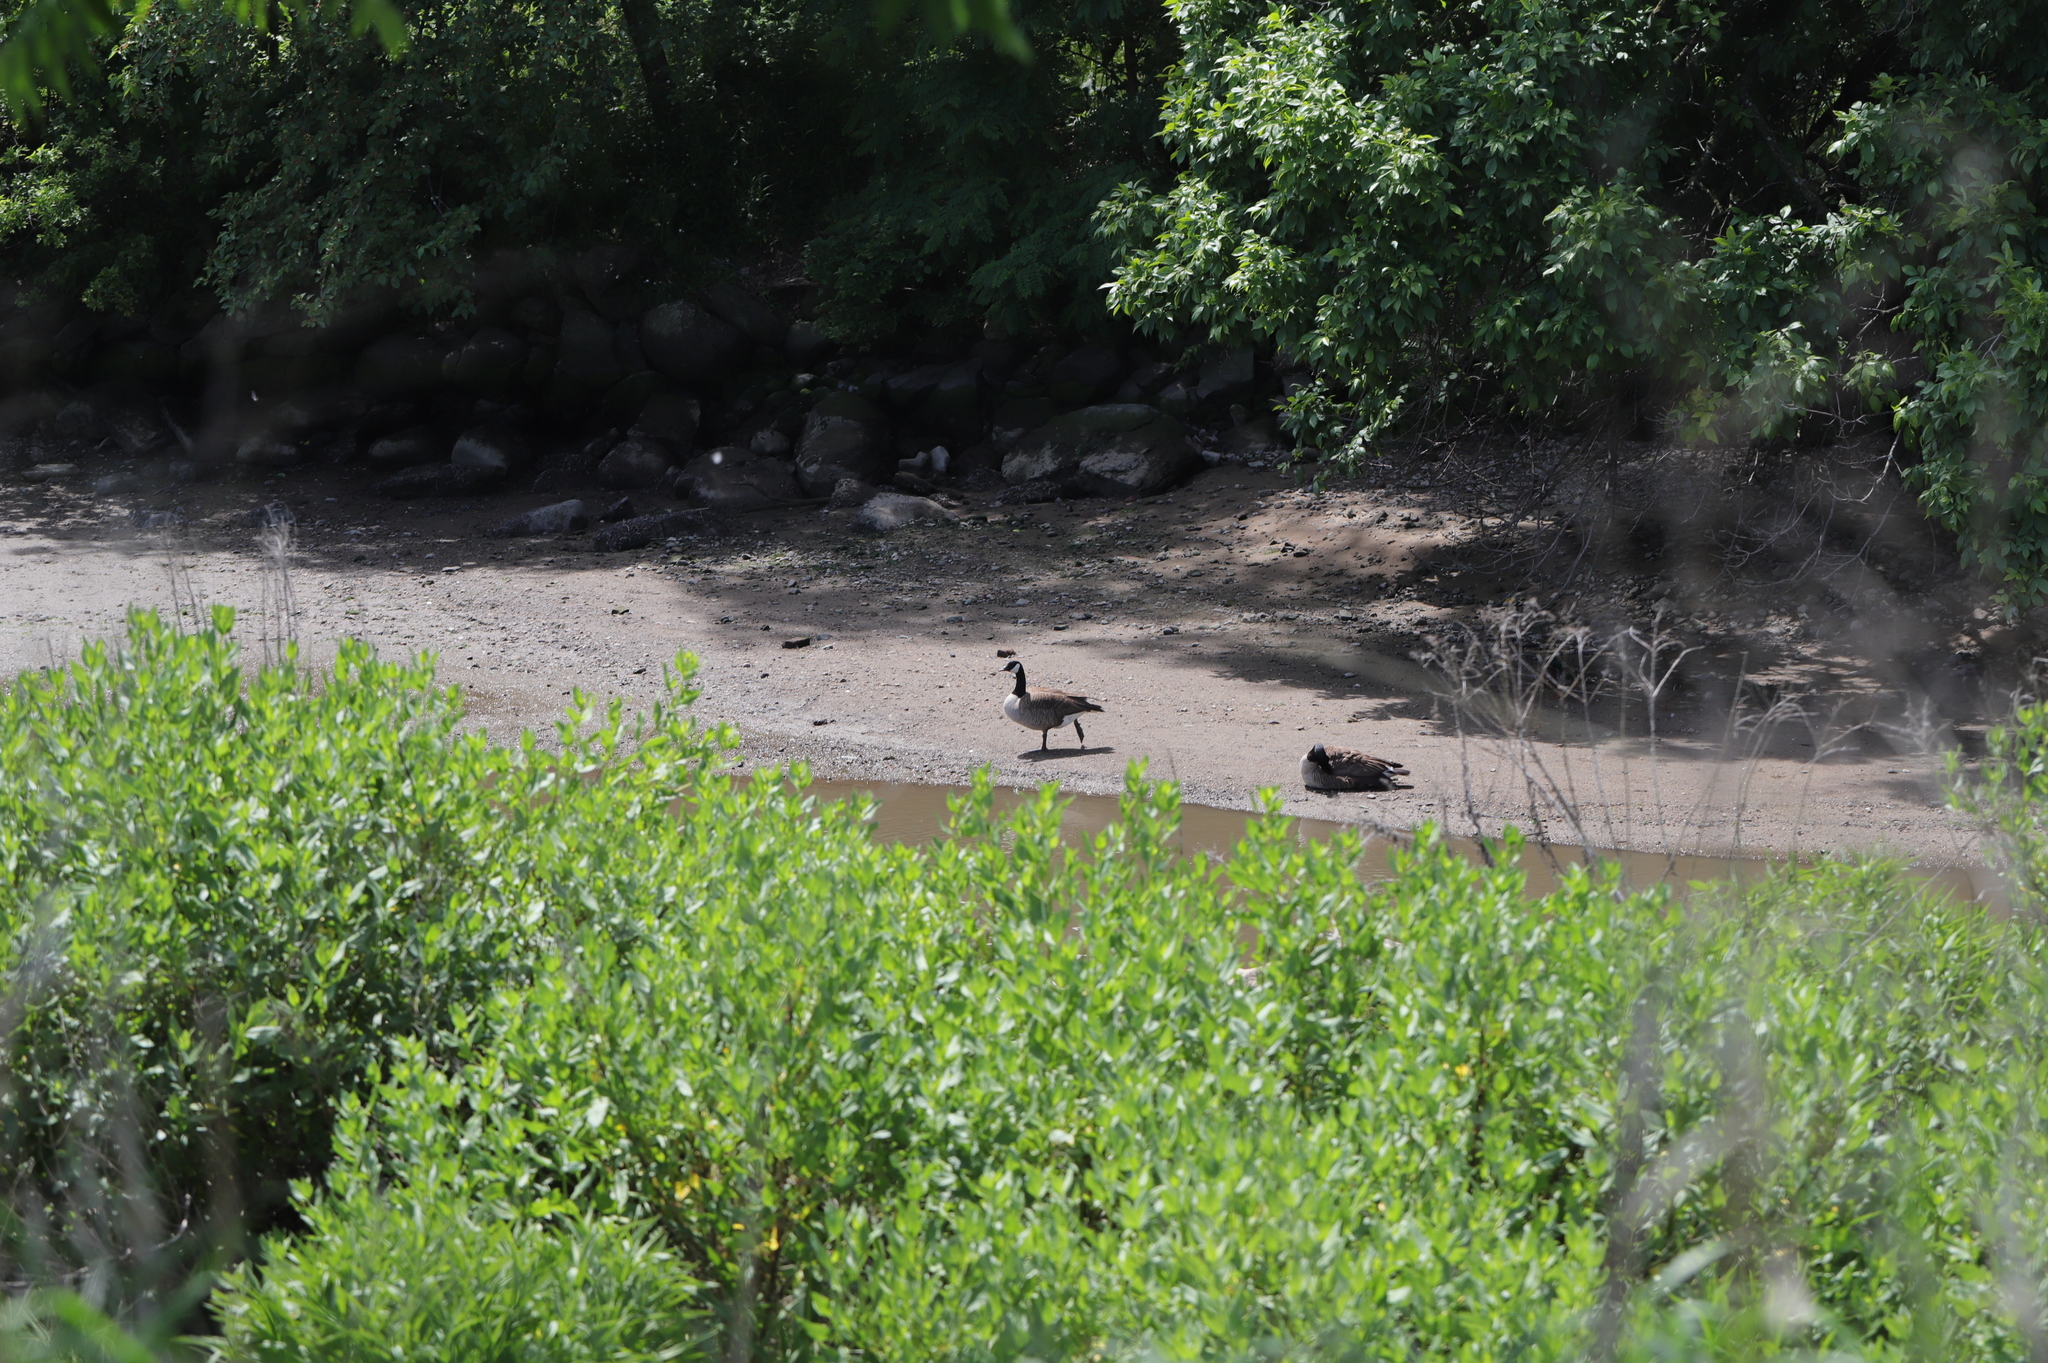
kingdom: Animalia
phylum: Chordata
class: Aves
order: Anseriformes
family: Anatidae
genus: Branta
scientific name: Branta canadensis
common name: Canada goose
